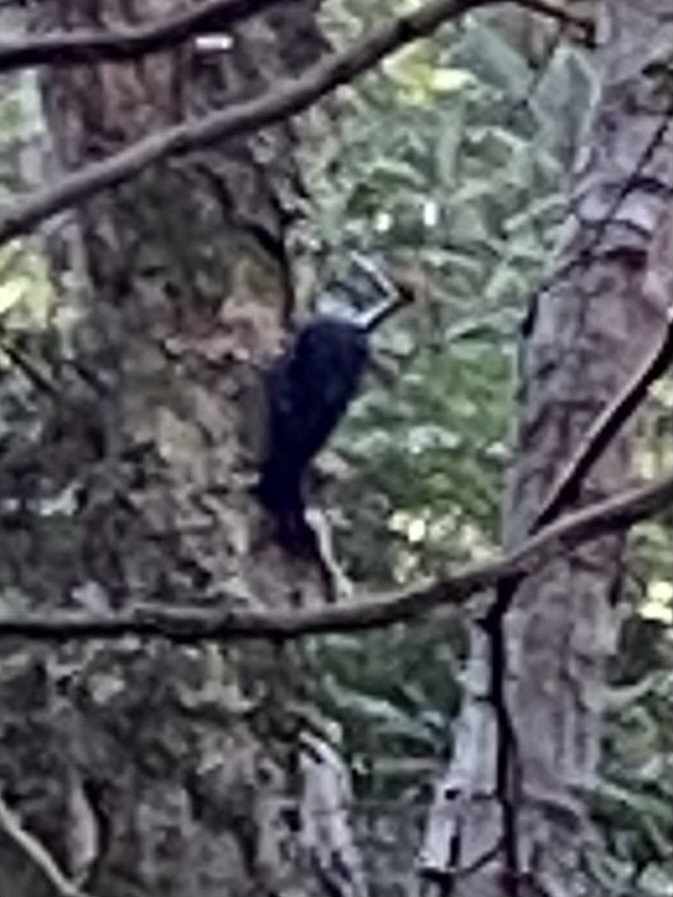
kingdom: Animalia
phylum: Chordata
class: Aves
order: Piciformes
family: Picidae
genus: Dryocopus
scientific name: Dryocopus pileatus
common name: Pileated woodpecker
